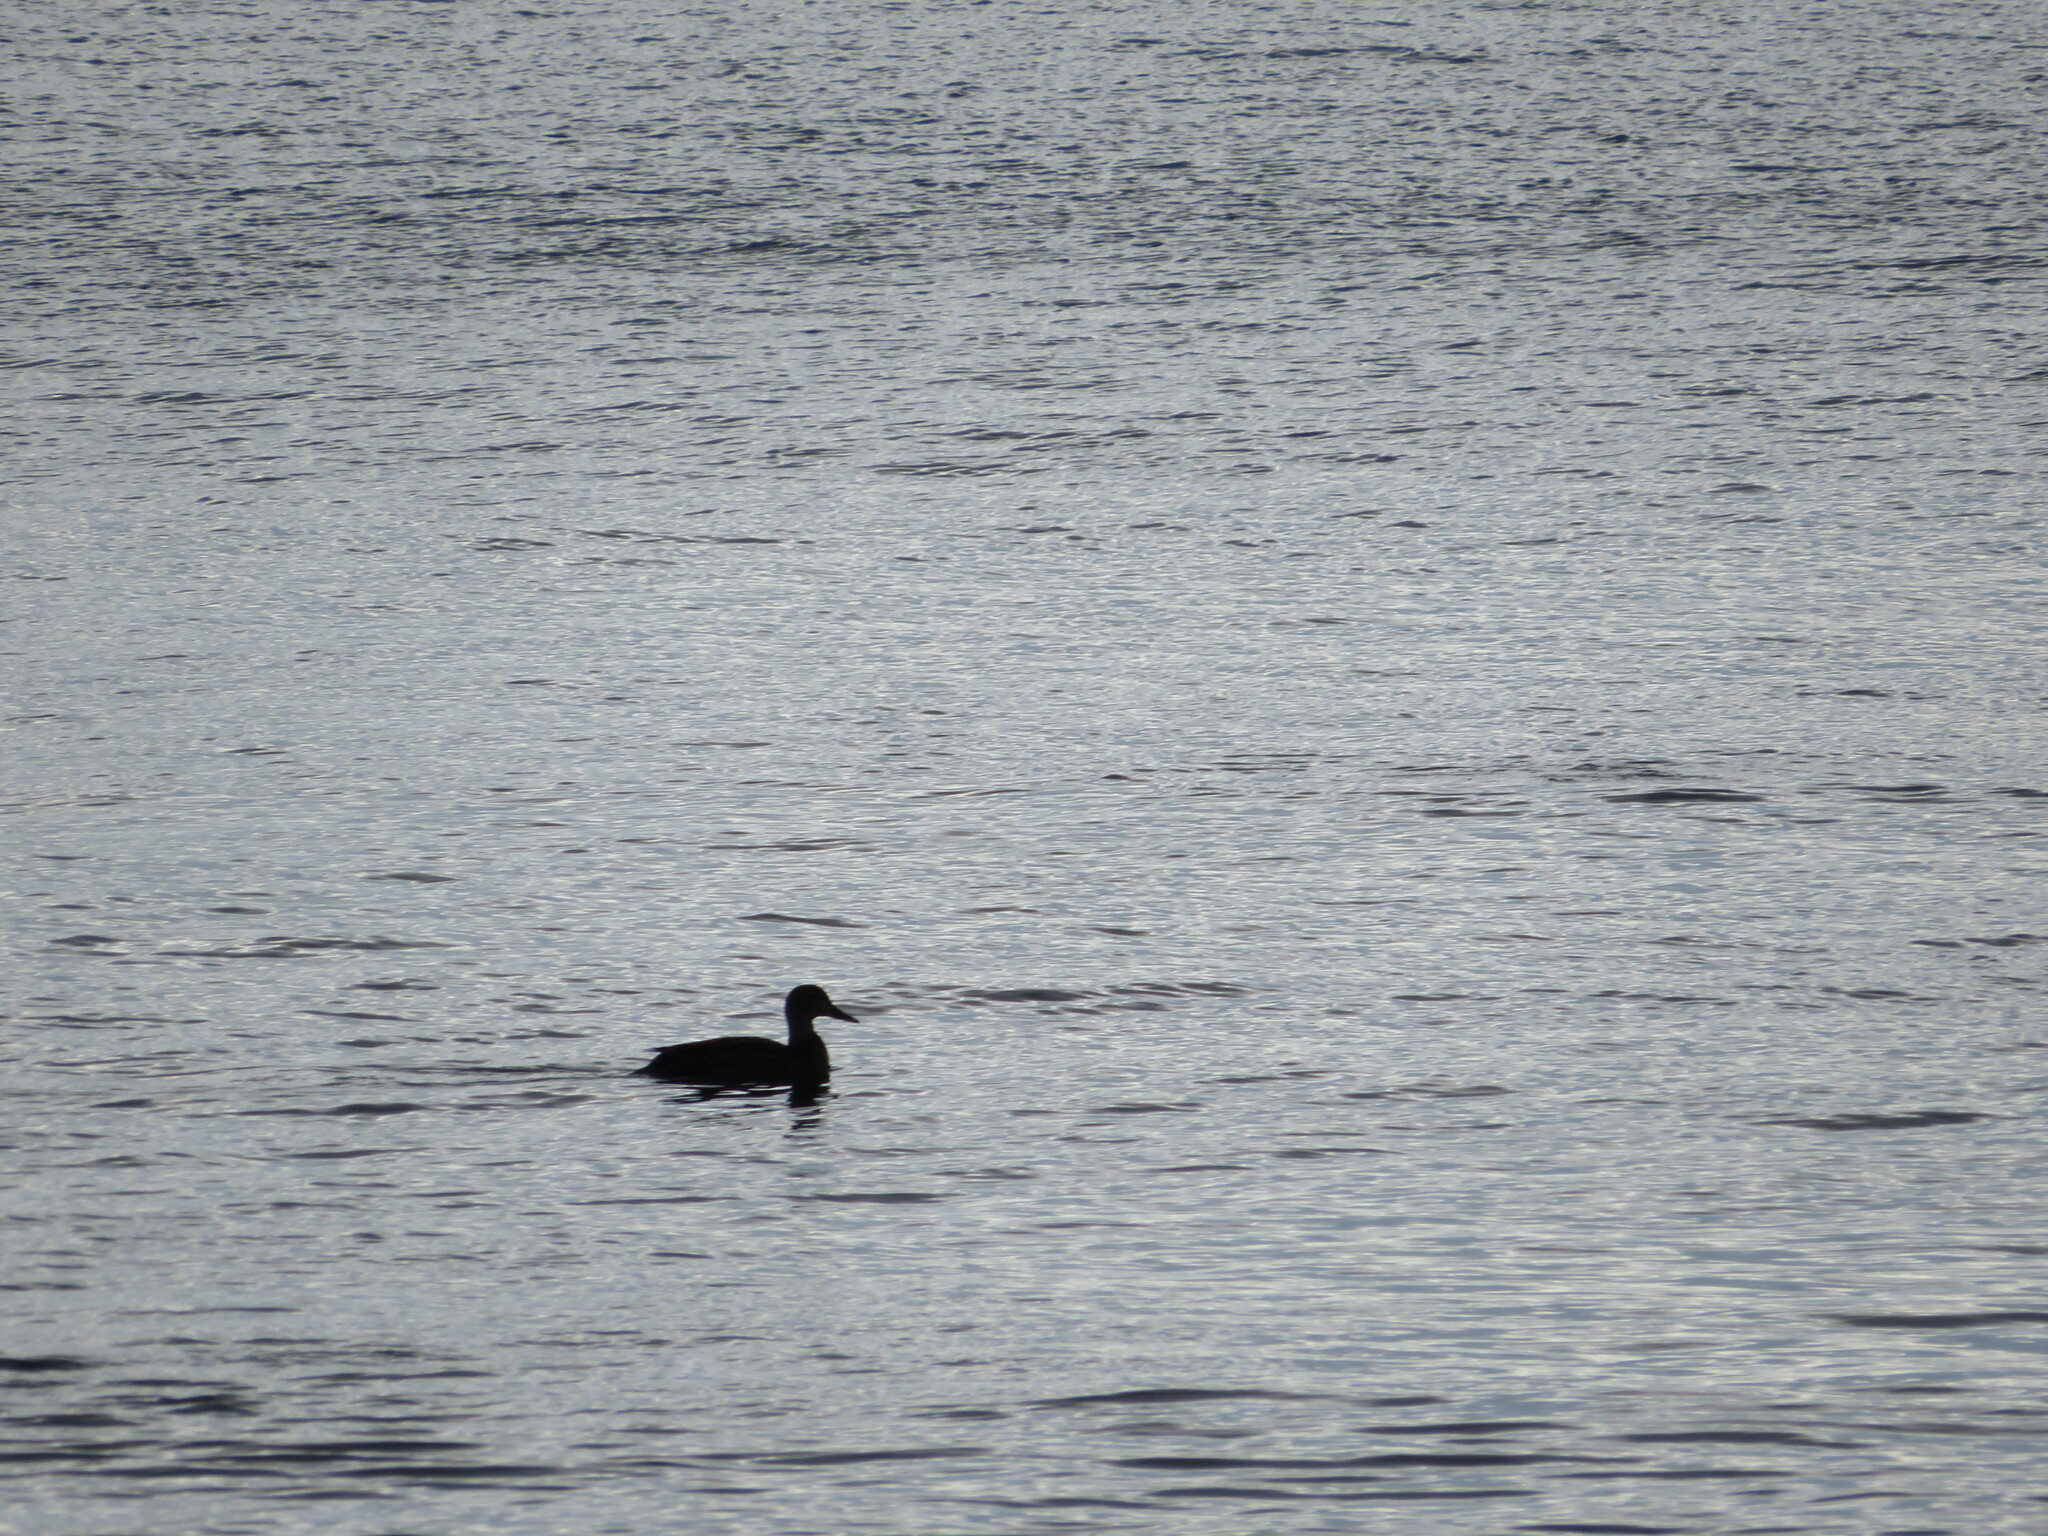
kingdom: Animalia
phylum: Chordata
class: Aves
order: Anseriformes
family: Anatidae
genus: Anas
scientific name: Anas rubripes
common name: American black duck
